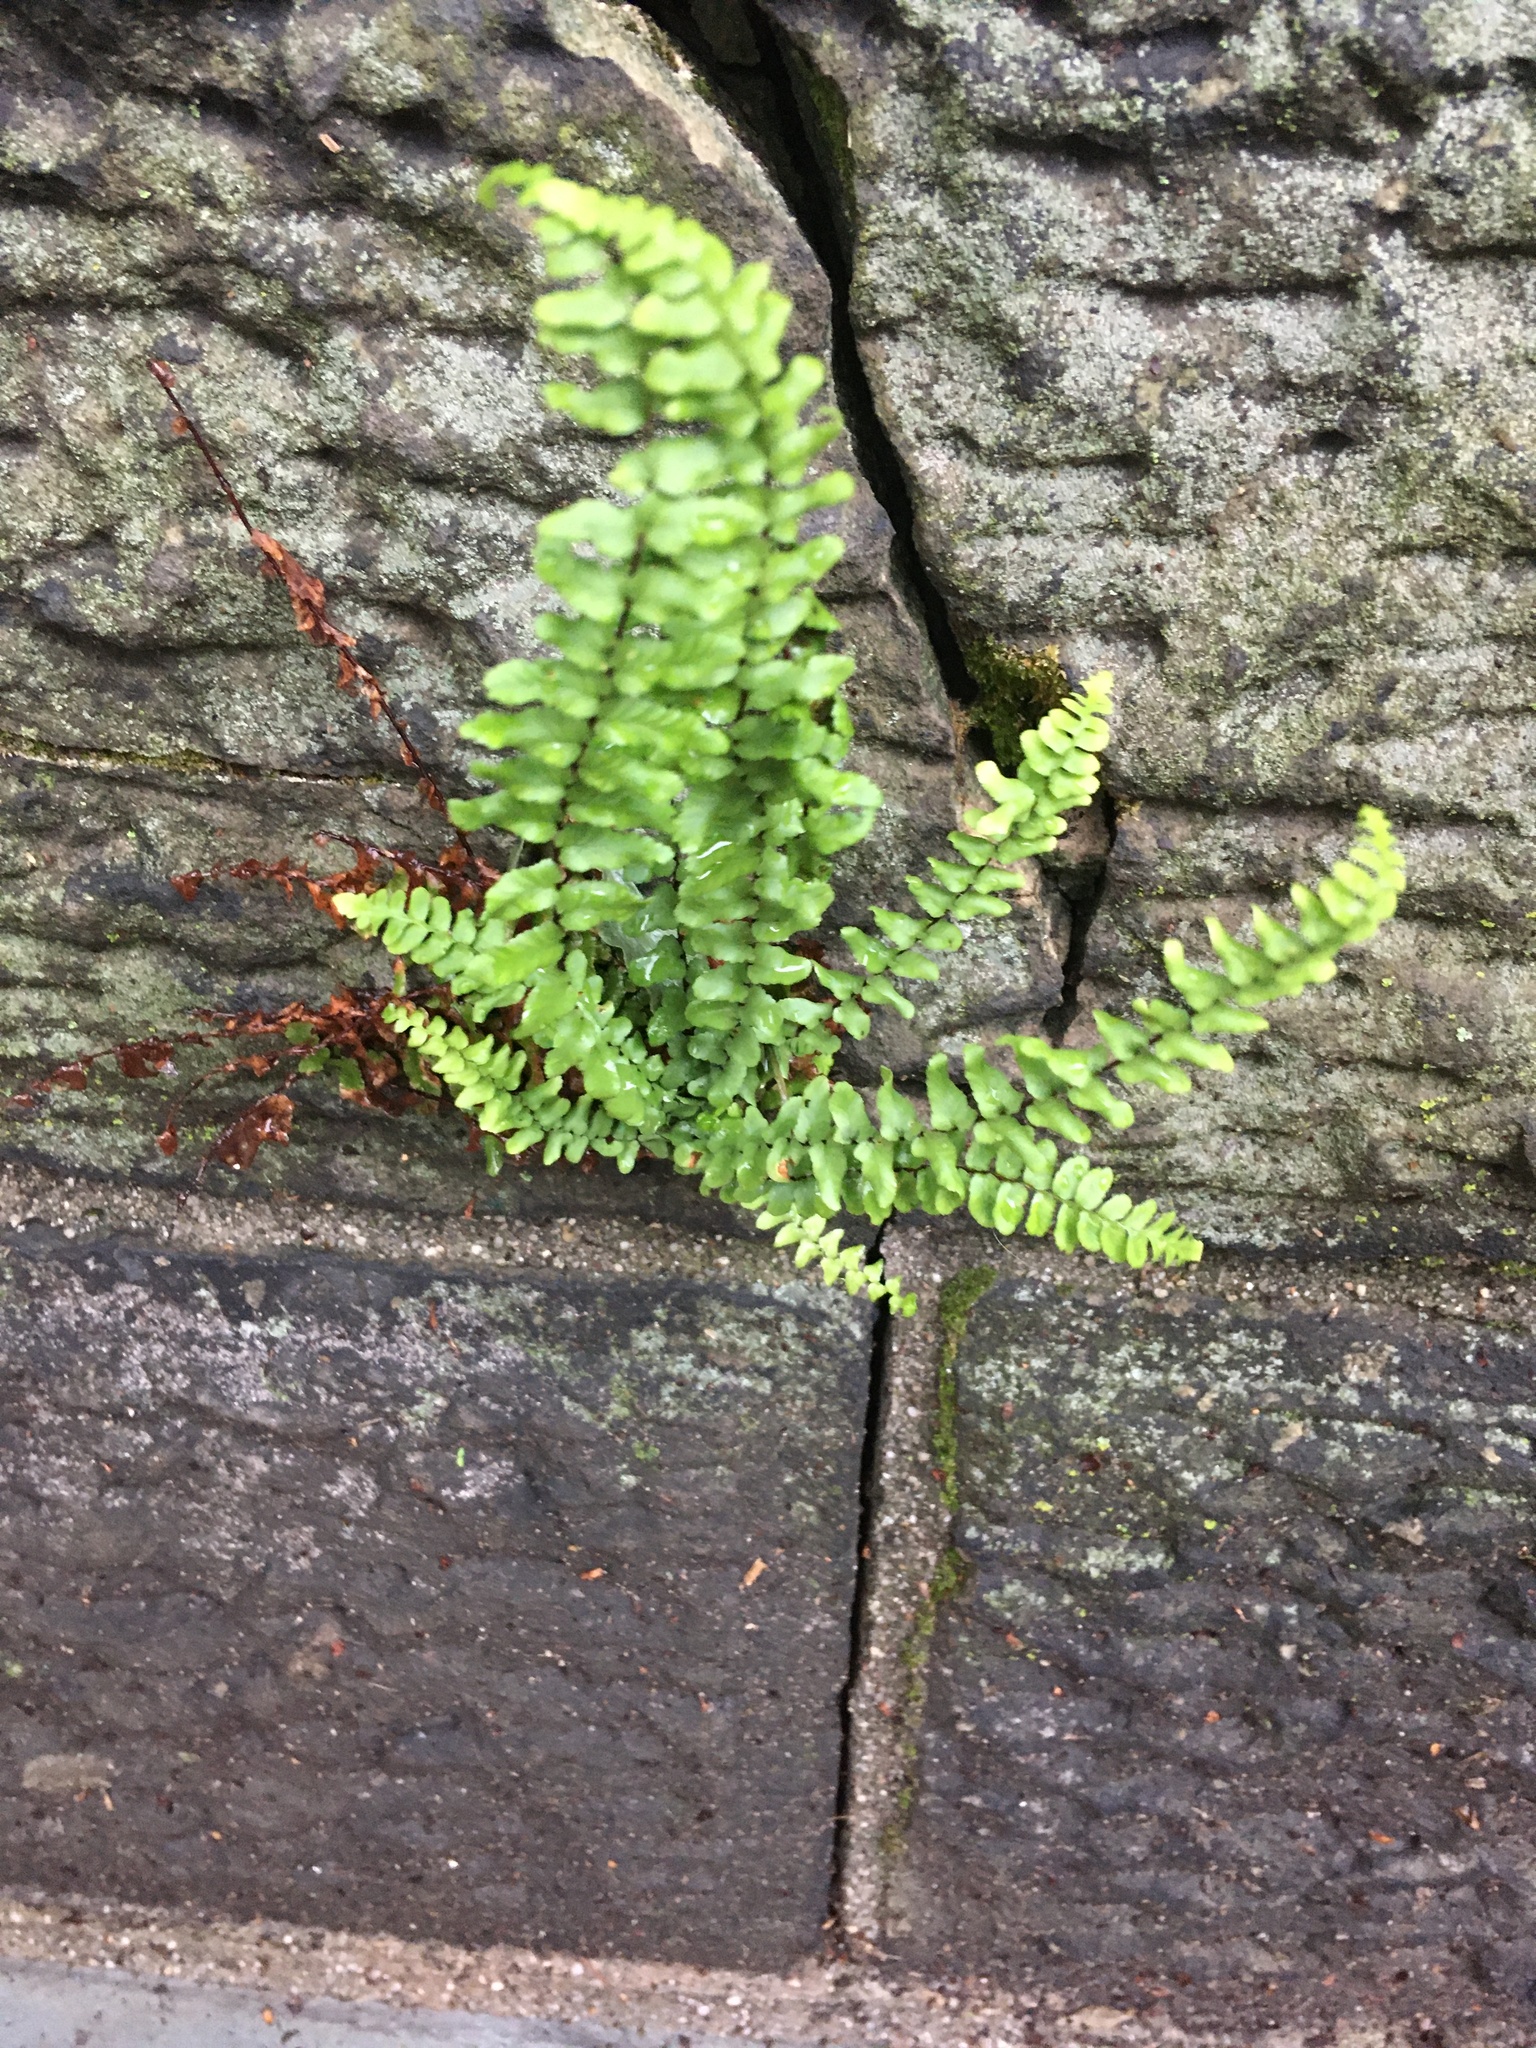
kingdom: Plantae
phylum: Tracheophyta
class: Polypodiopsida
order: Polypodiales
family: Aspleniaceae
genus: Asplenium
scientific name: Asplenium platyneuron
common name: Ebony spleenwort
